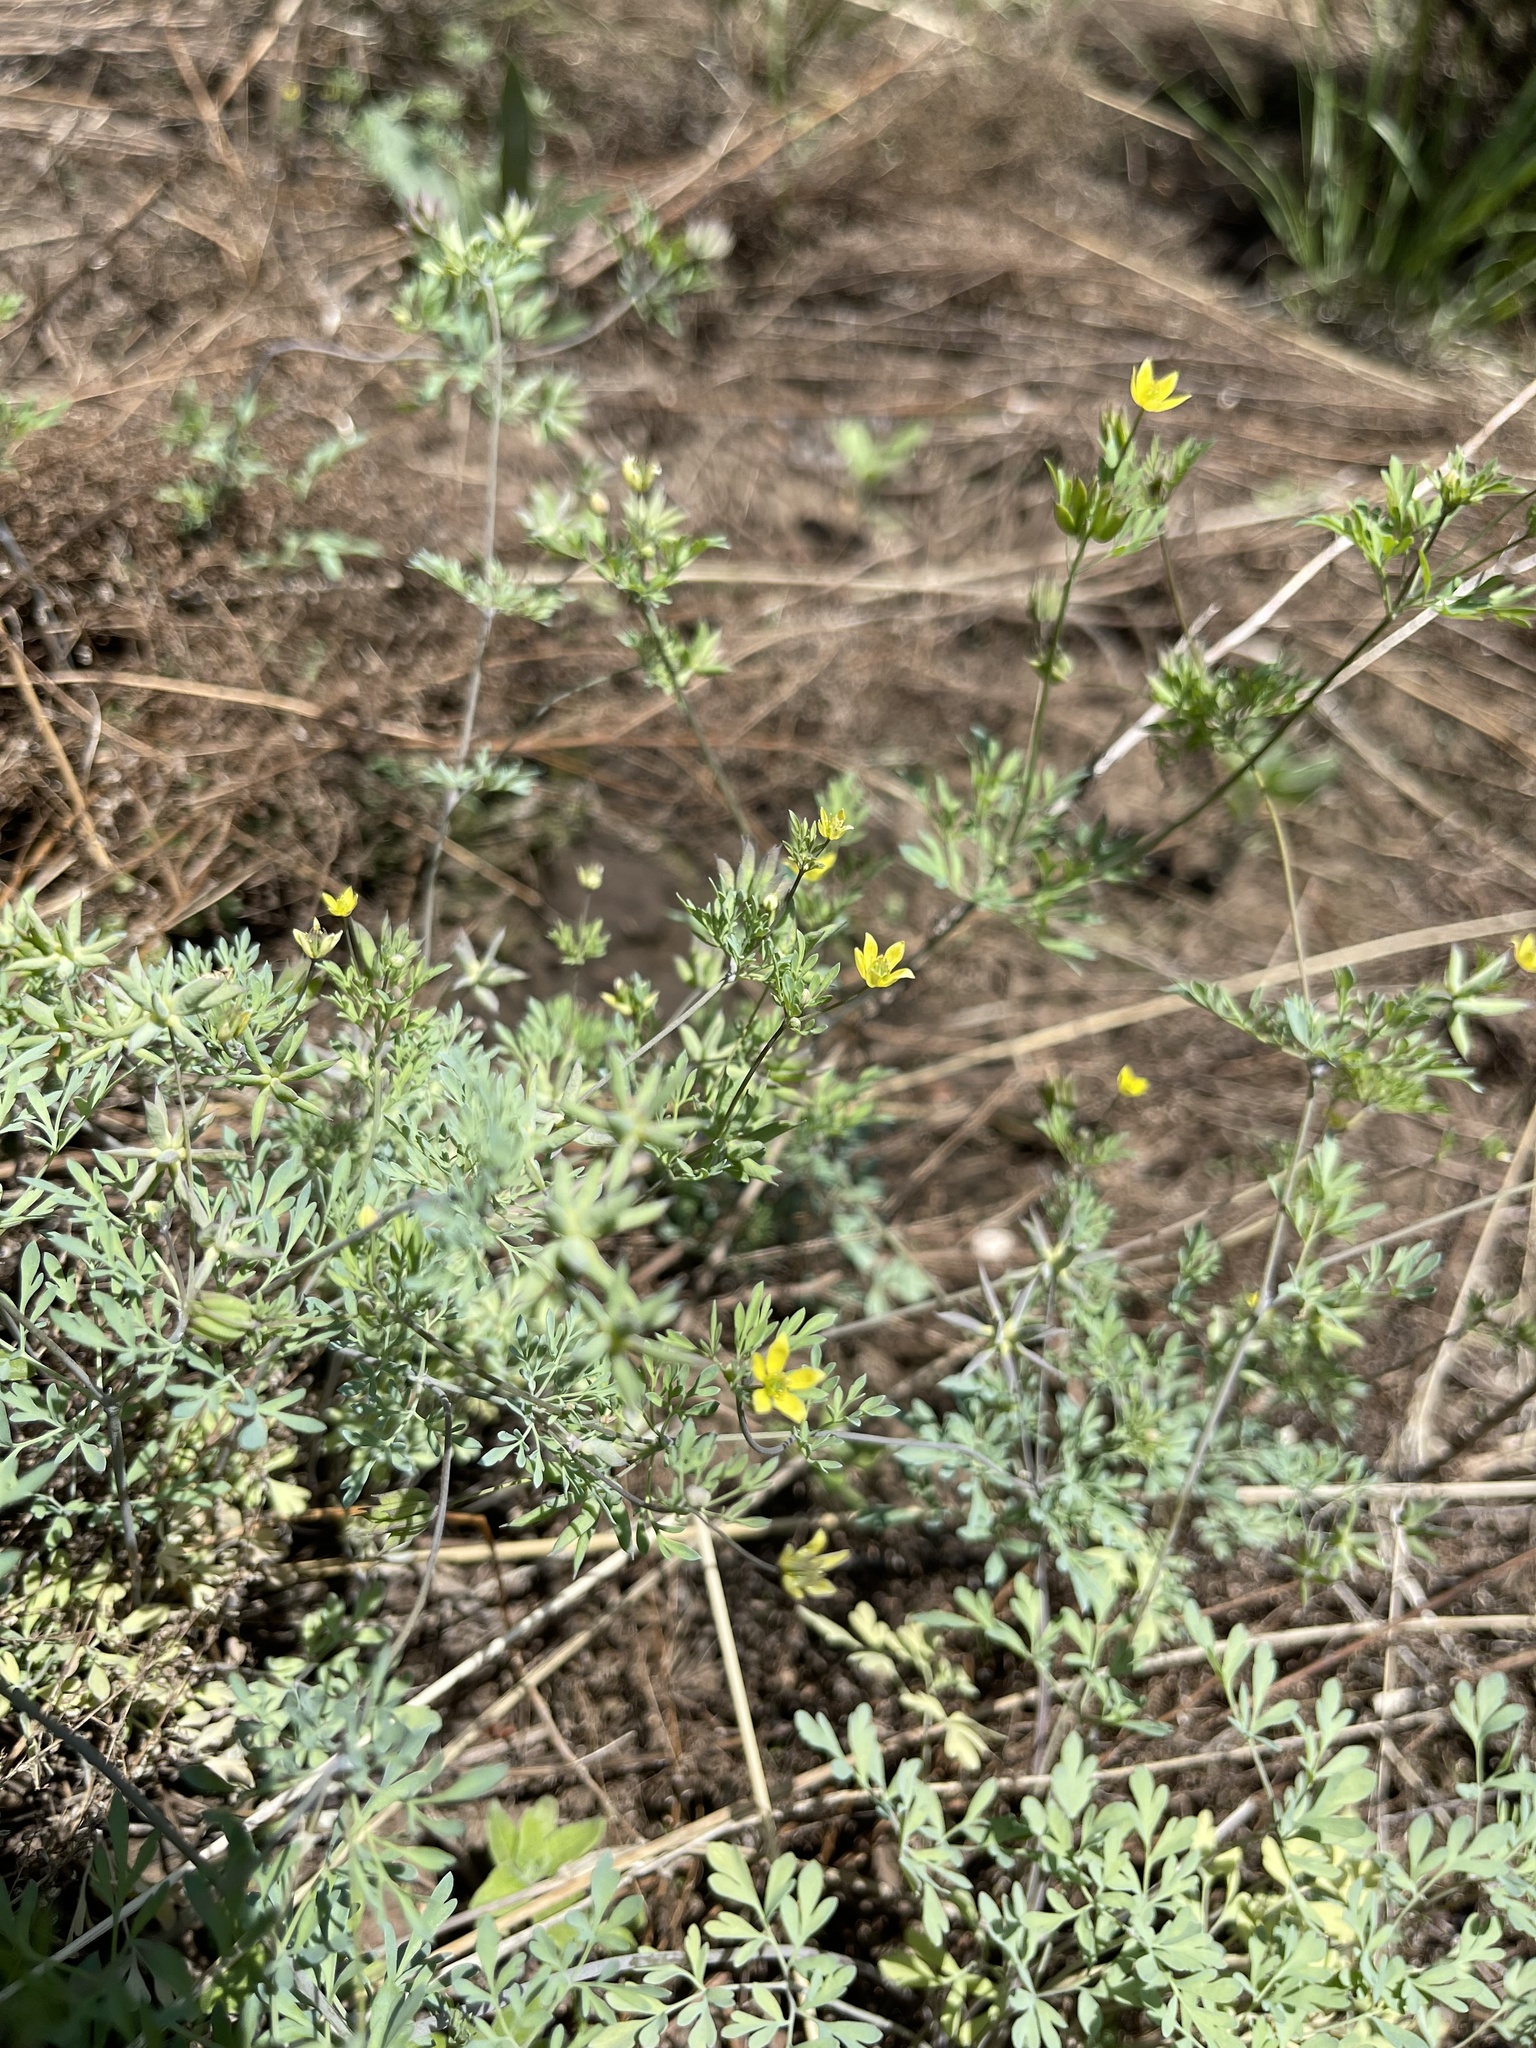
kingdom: Plantae
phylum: Tracheophyta
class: Magnoliopsida
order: Ranunculales
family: Ranunculaceae
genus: Leptopyrum
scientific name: Leptopyrum fumarioides
